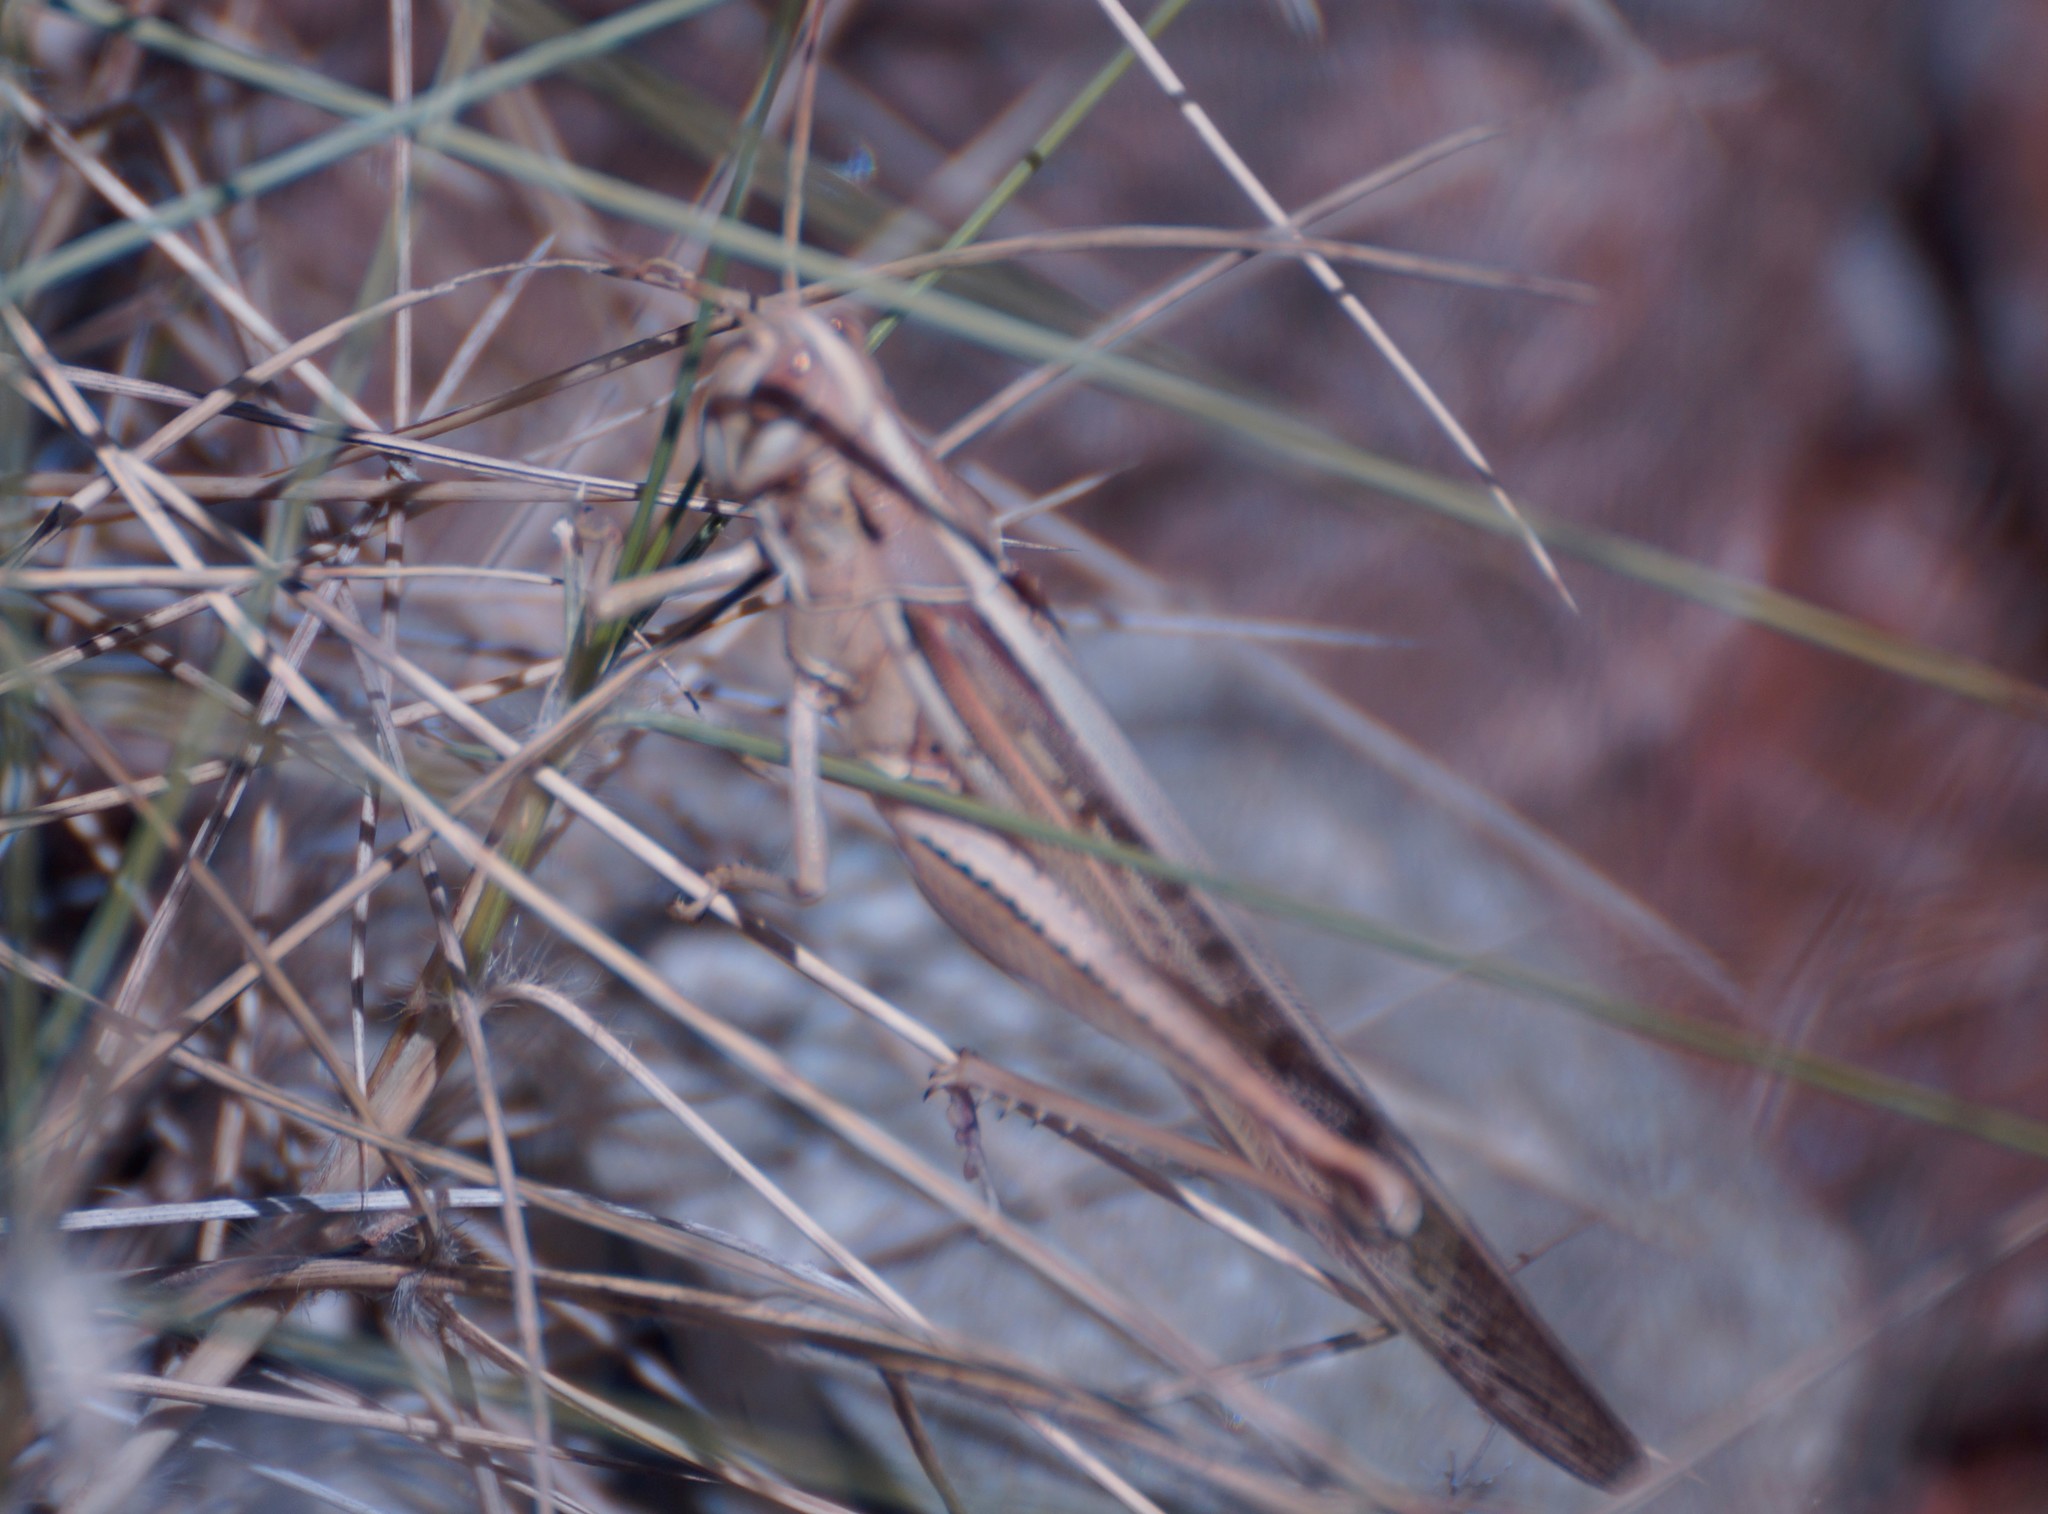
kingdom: Animalia
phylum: Arthropoda
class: Insecta
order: Orthoptera
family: Acrididae
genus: Austracris
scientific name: Austracris guttulosa
